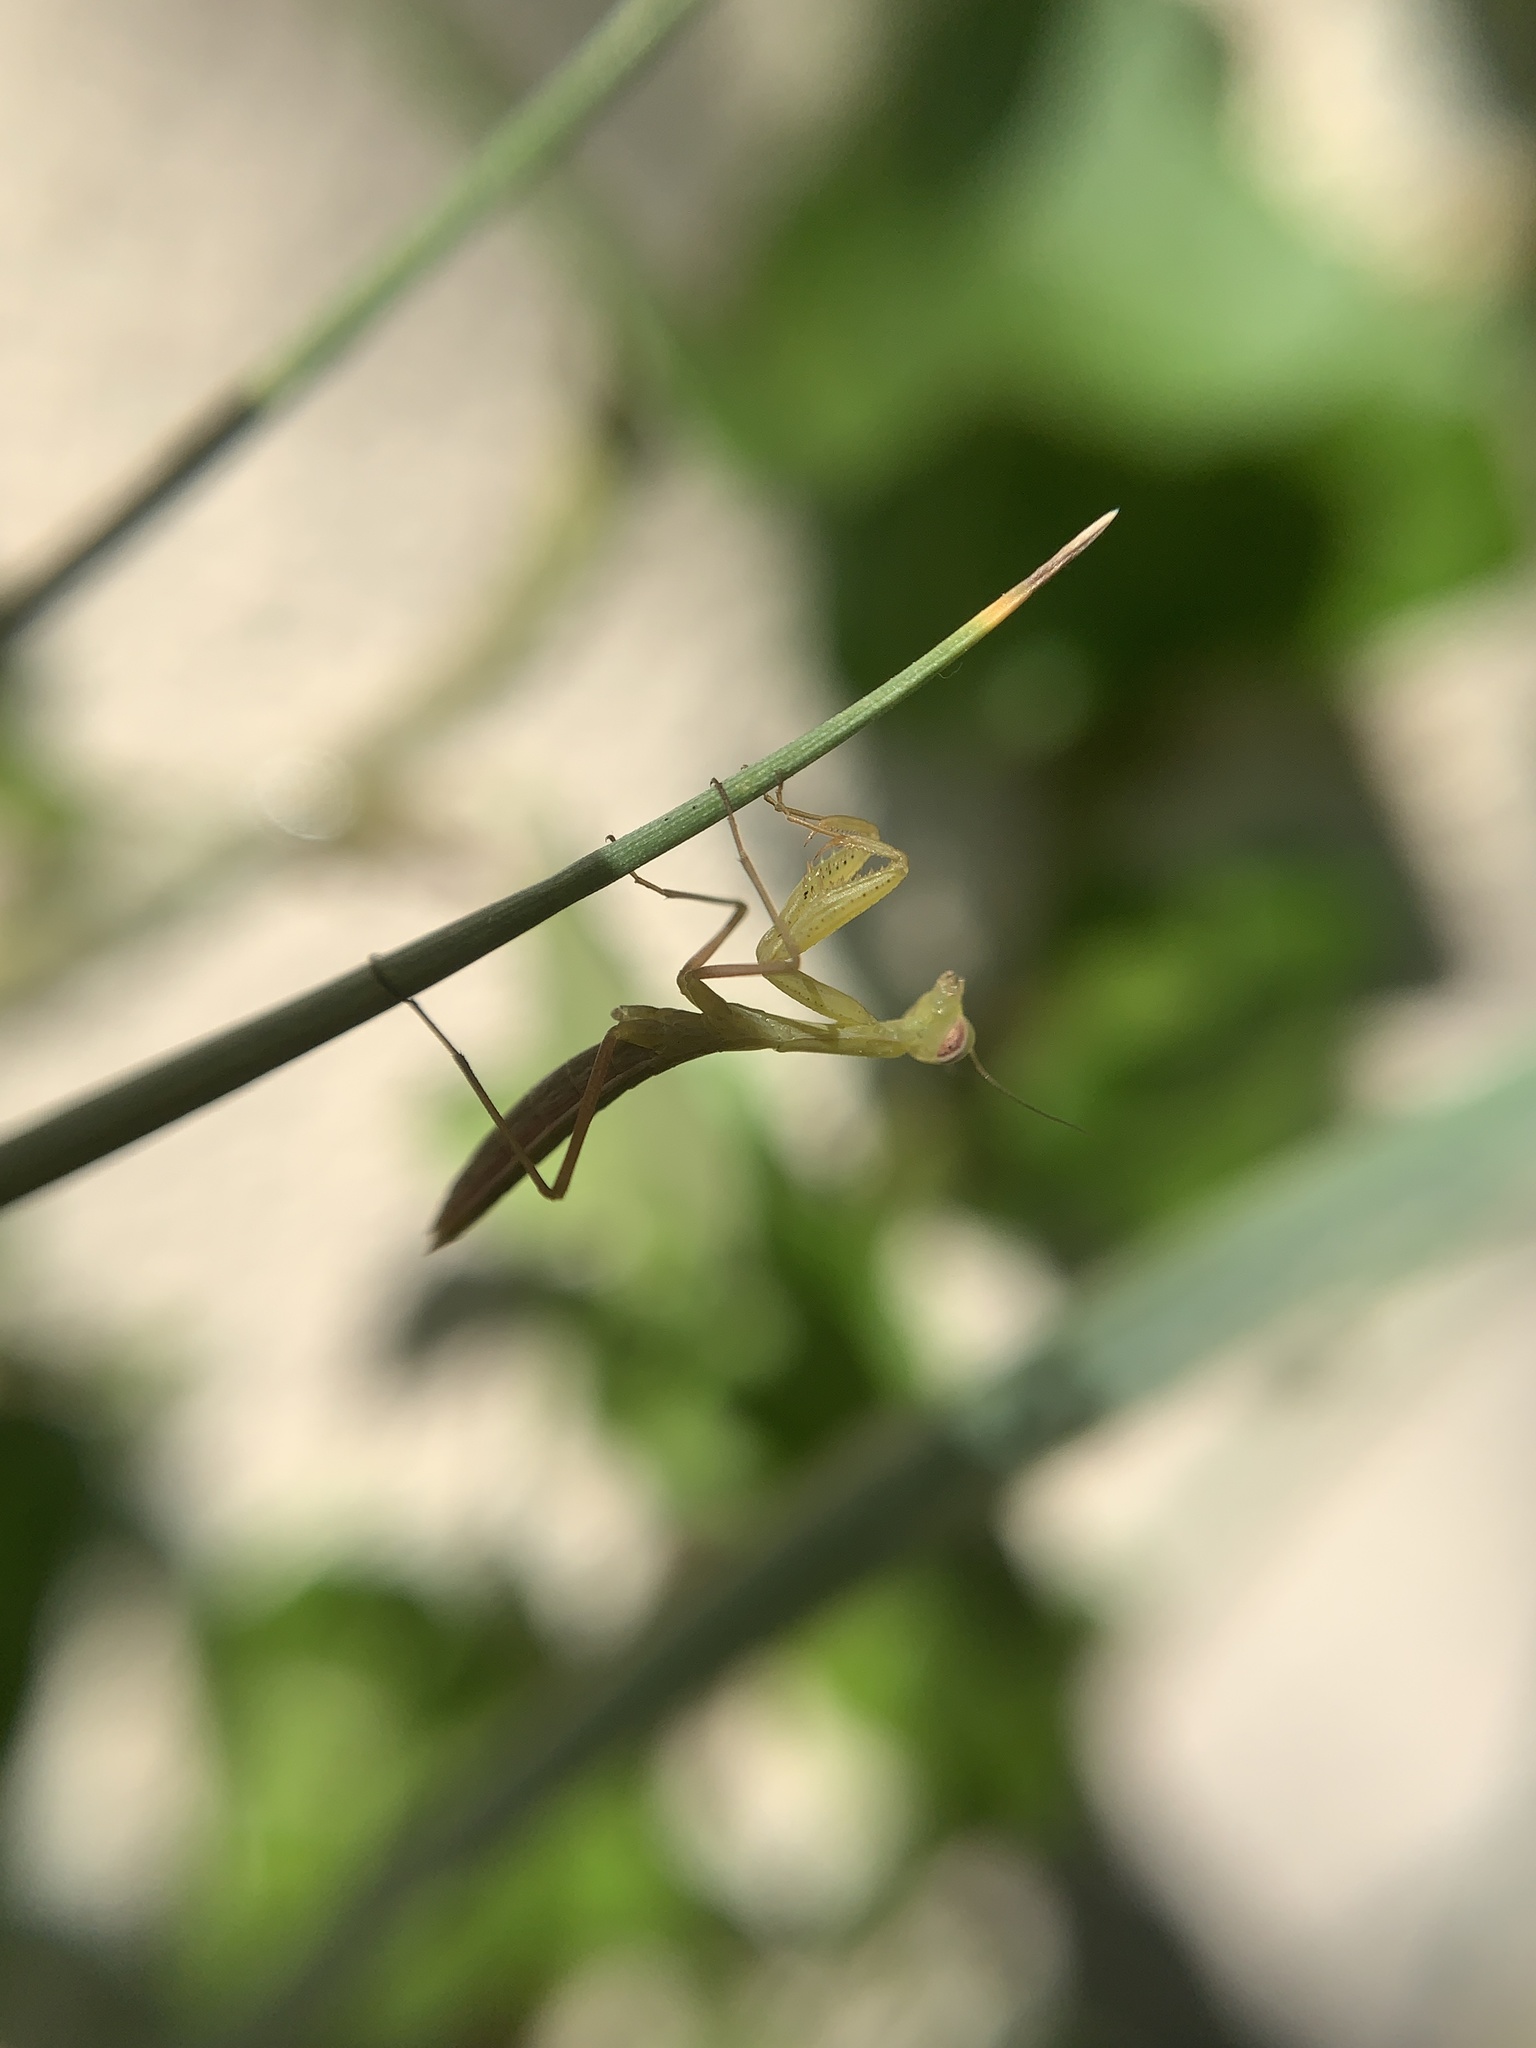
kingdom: Animalia
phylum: Arthropoda
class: Insecta
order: Mantodea
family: Mantidae
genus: Mantis
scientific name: Mantis religiosa
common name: Praying mantis
